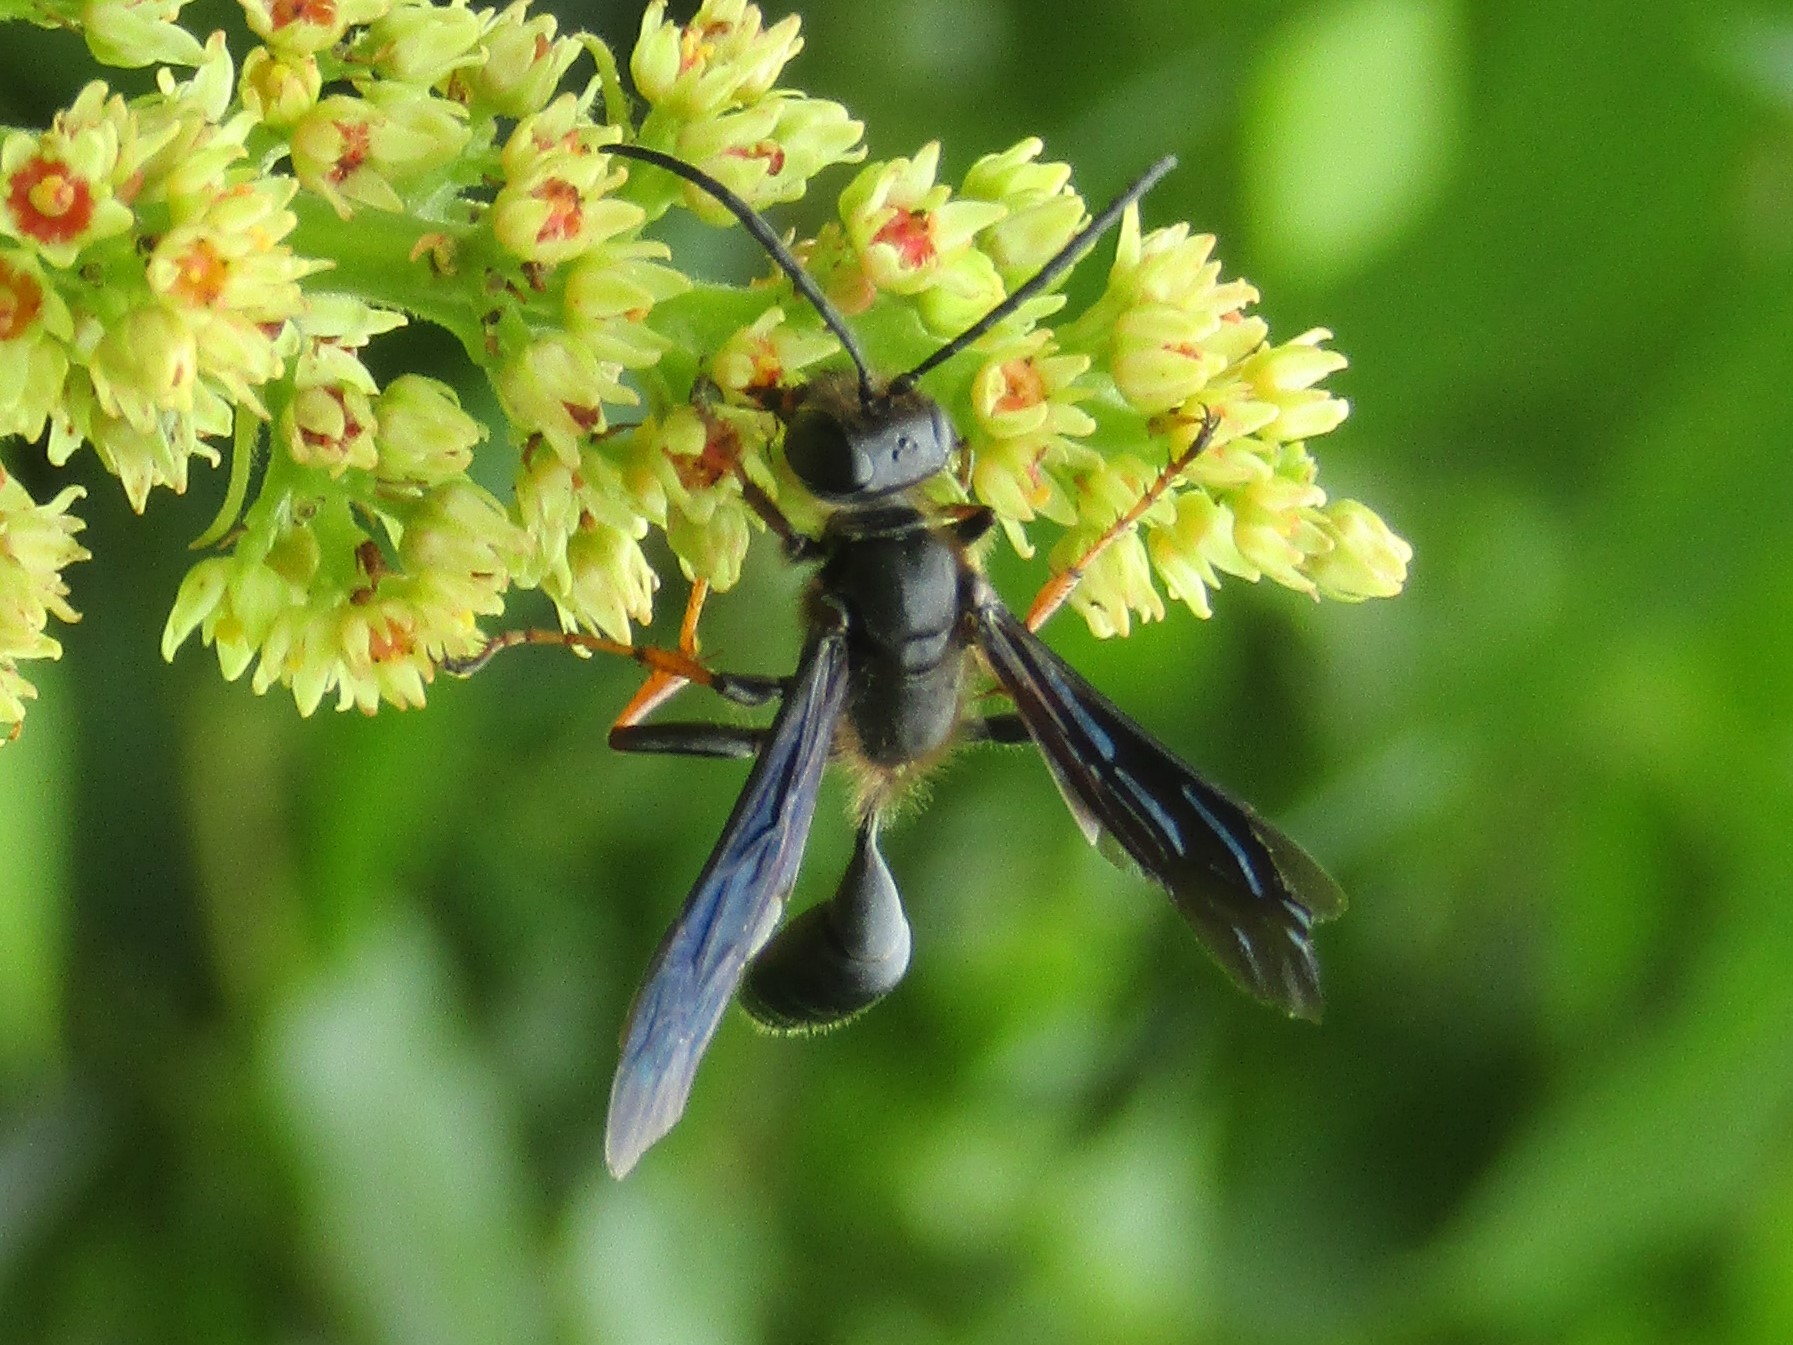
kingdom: Animalia
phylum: Arthropoda
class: Insecta
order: Hymenoptera
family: Sphecidae
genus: Isodontia
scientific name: Isodontia auripes
